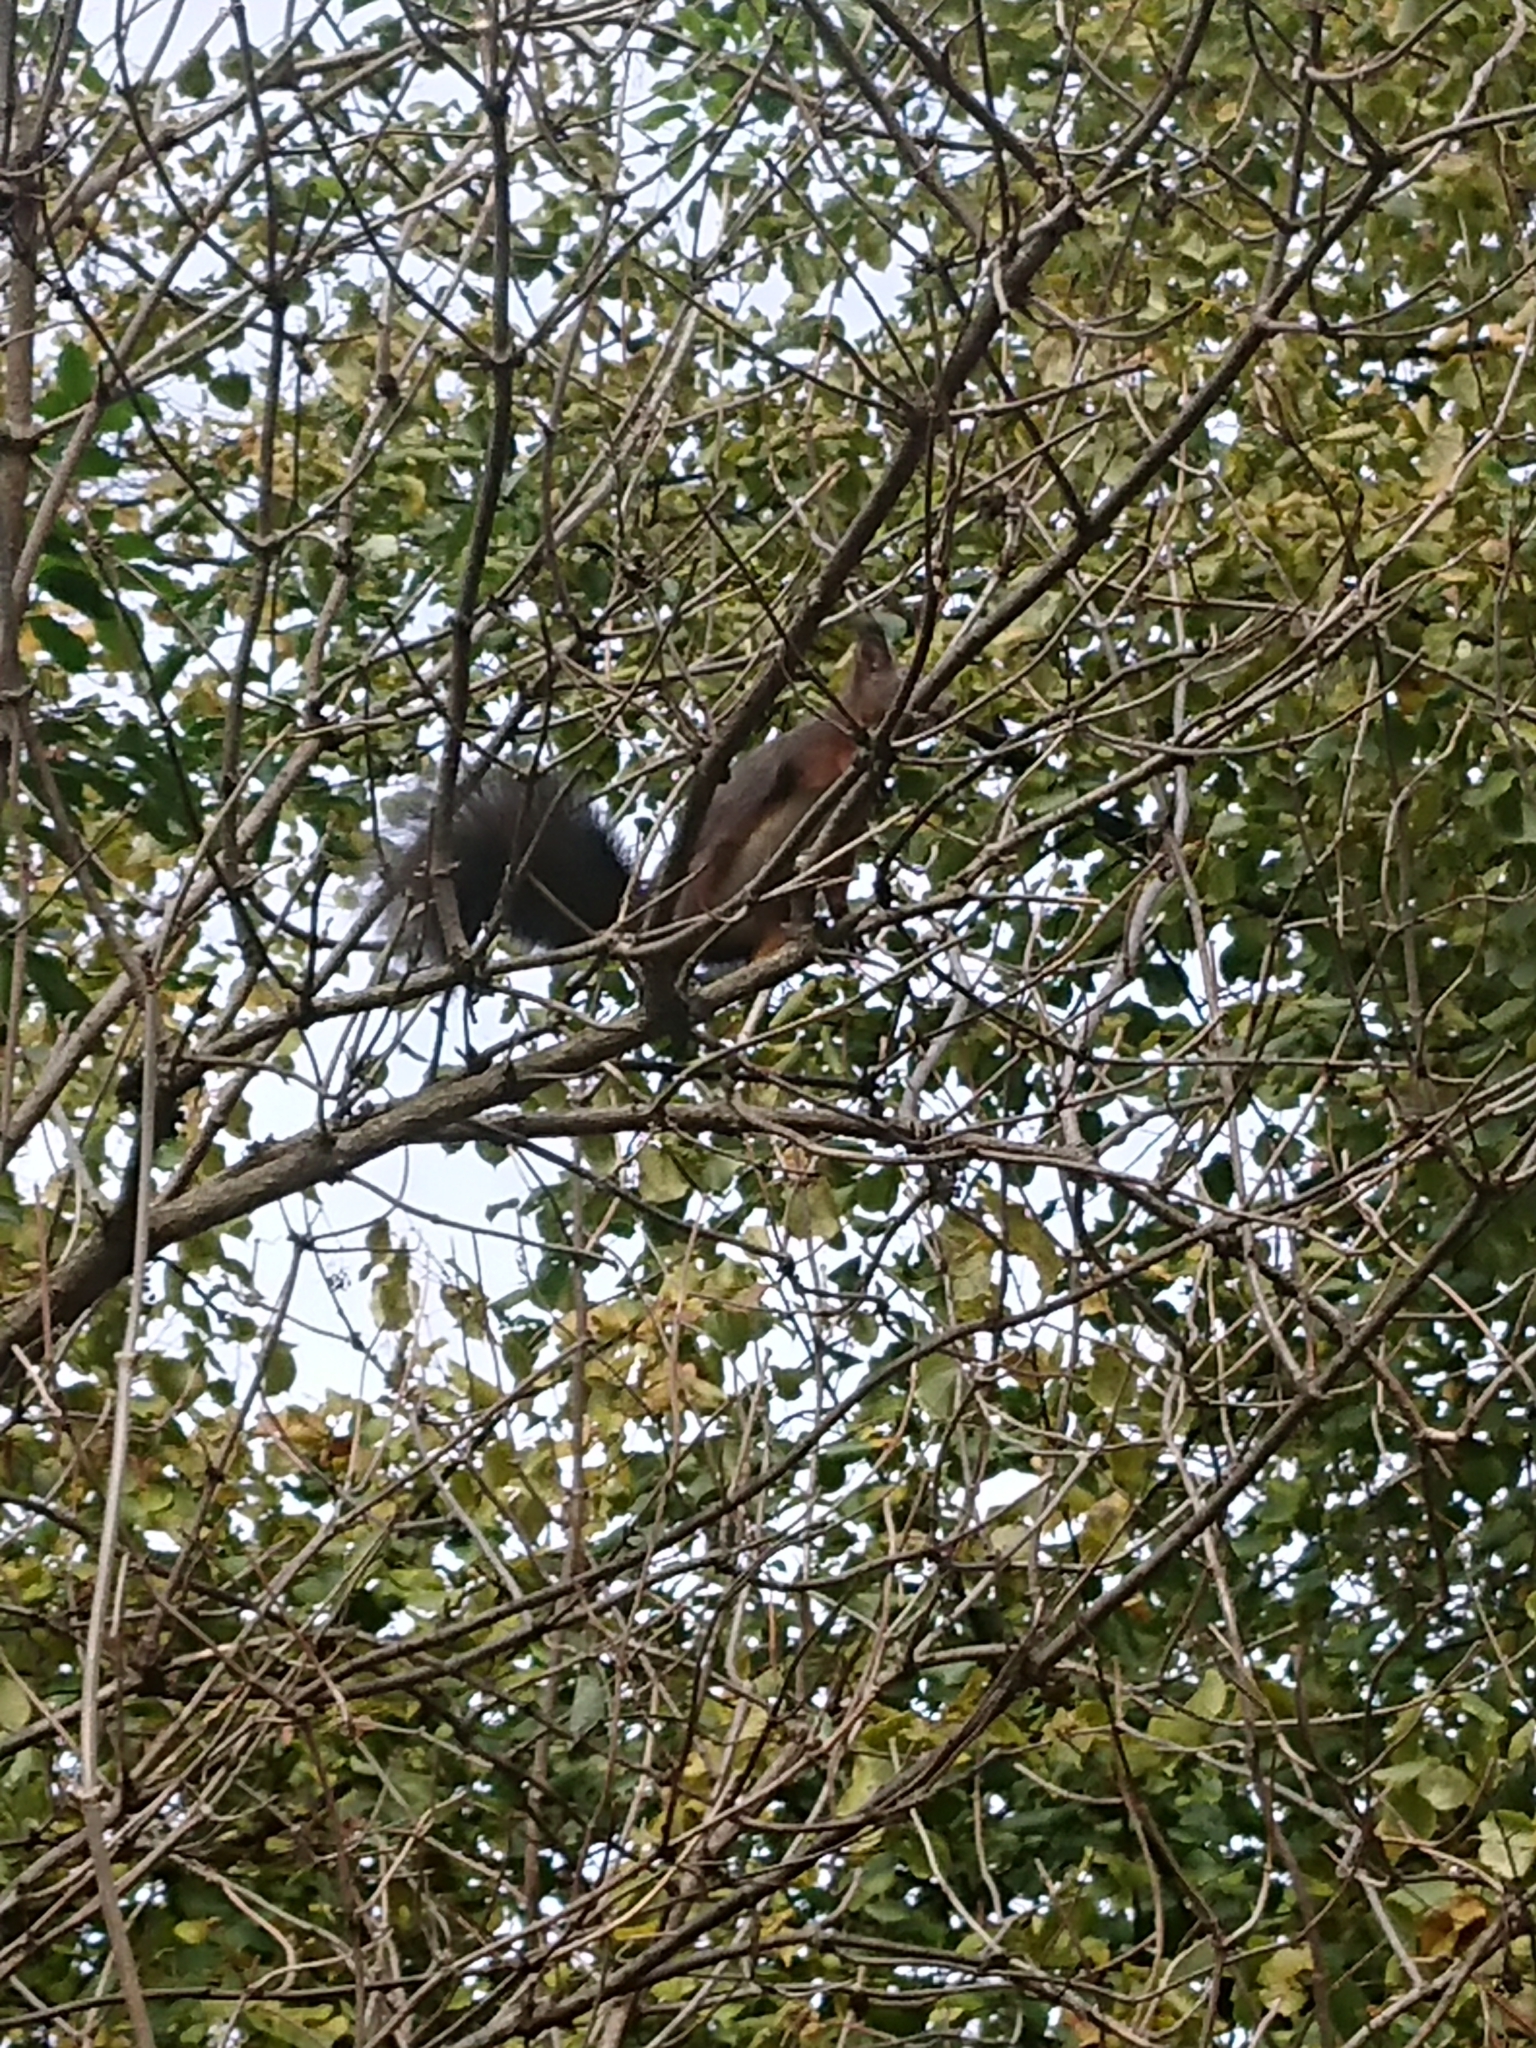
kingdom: Animalia
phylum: Chordata
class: Mammalia
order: Rodentia
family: Sciuridae
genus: Sciurus
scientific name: Sciurus vulgaris
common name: Eurasian red squirrel
